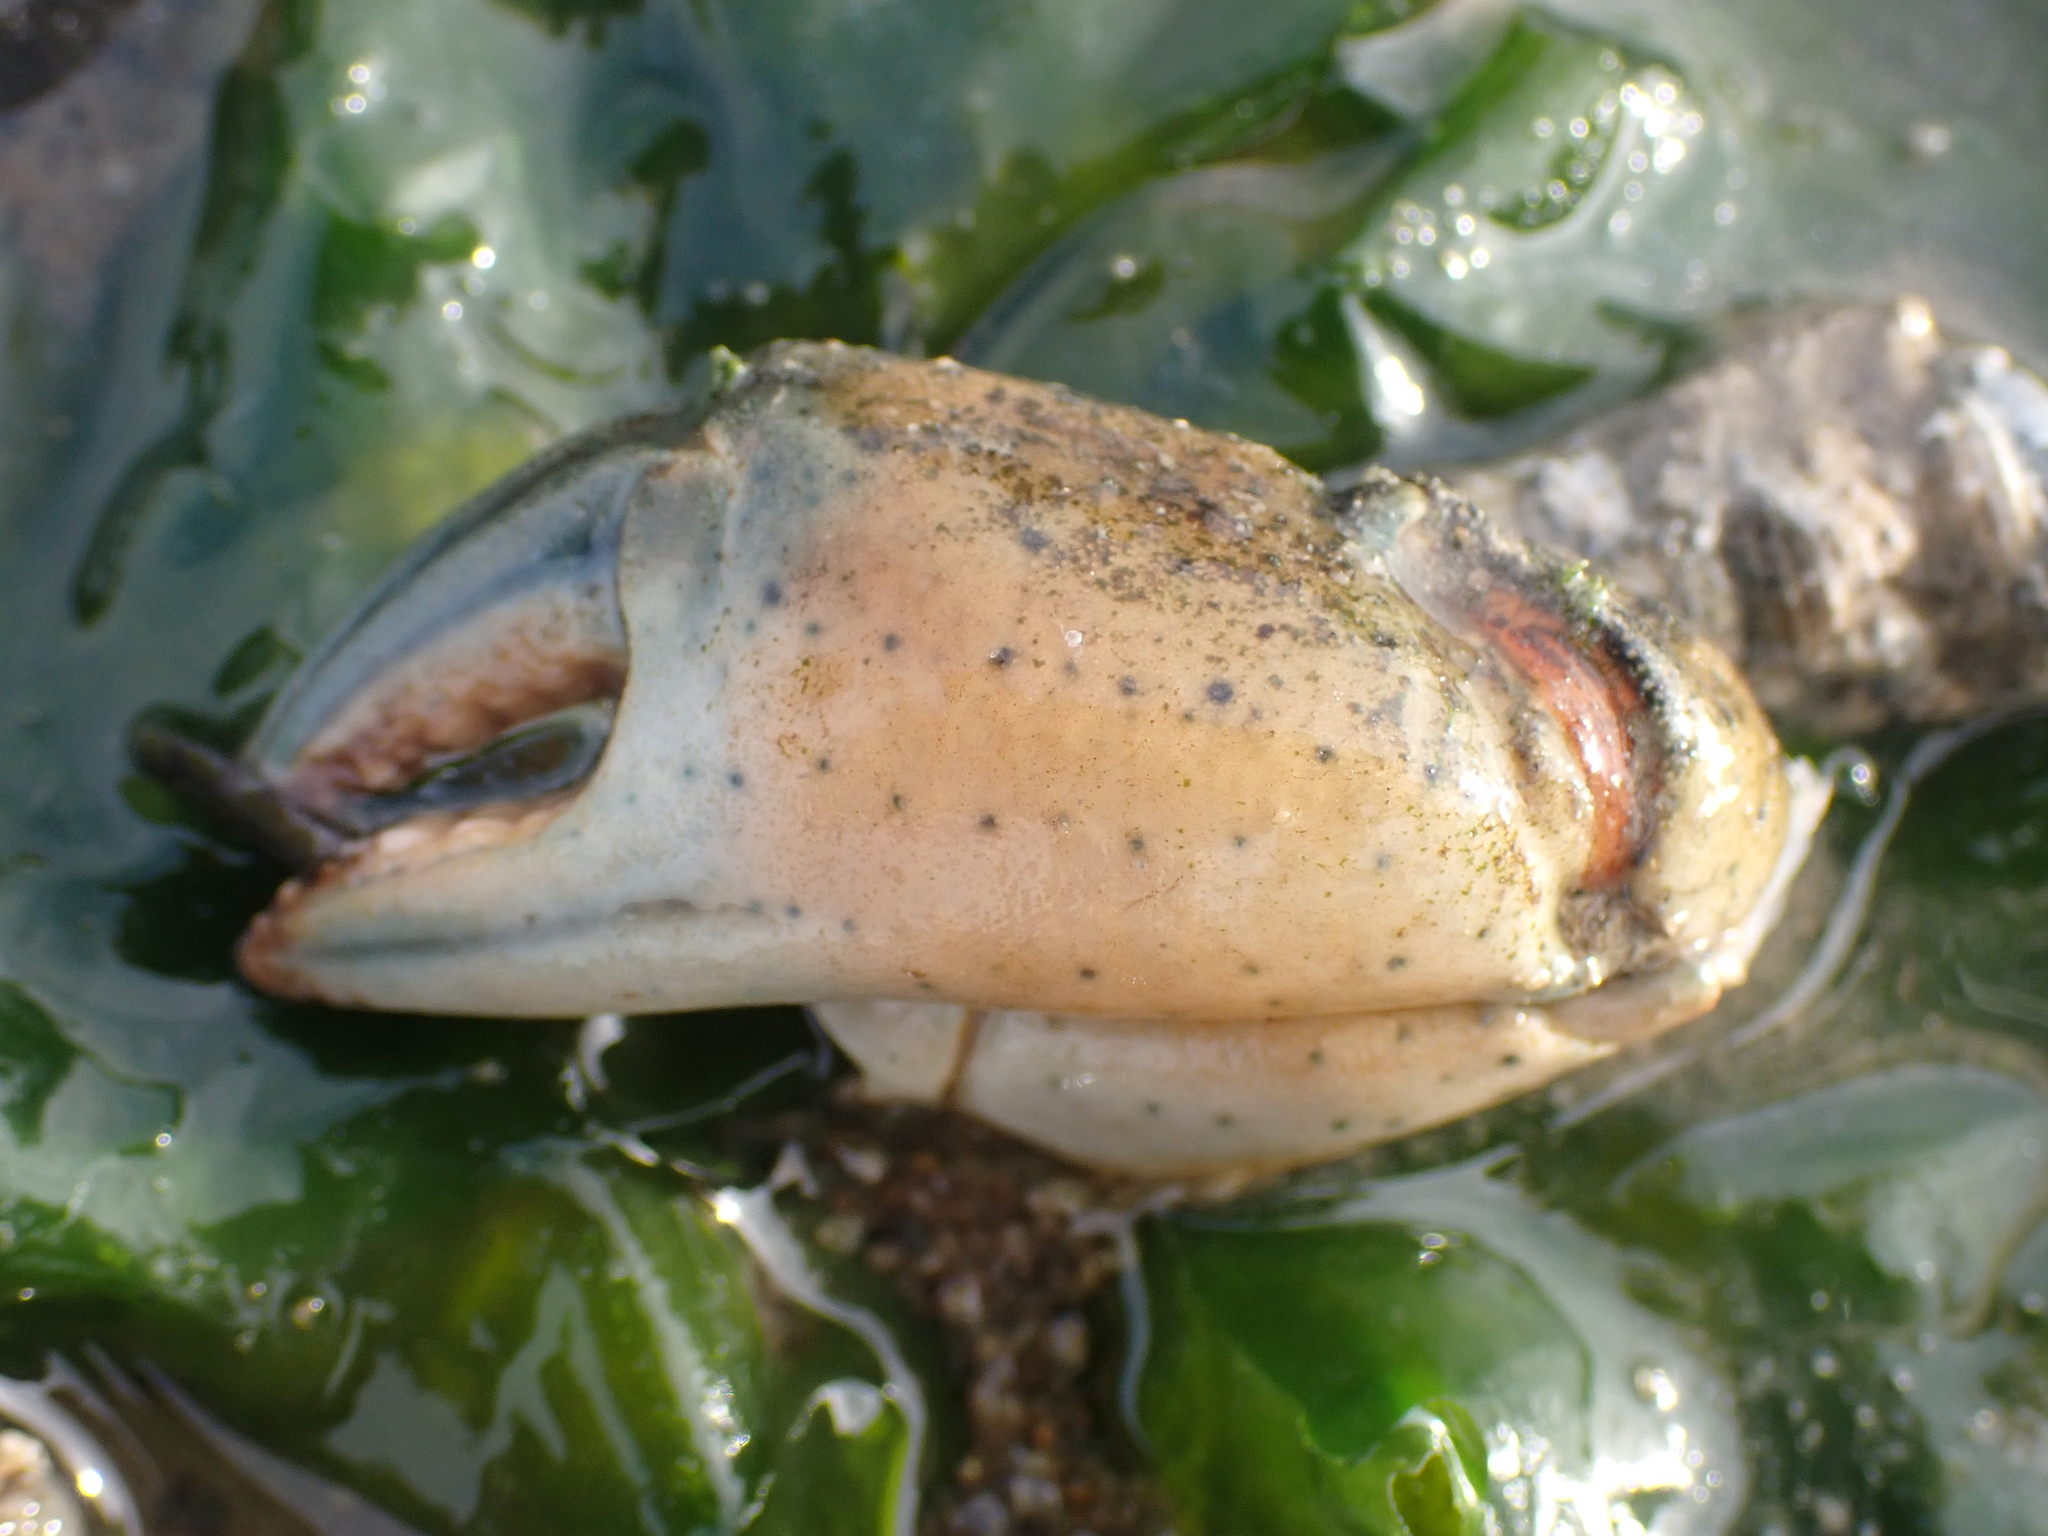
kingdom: Animalia
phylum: Arthropoda
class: Malacostraca
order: Decapoda
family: Carcinidae
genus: Carcinus
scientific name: Carcinus maenas
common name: European green crab
